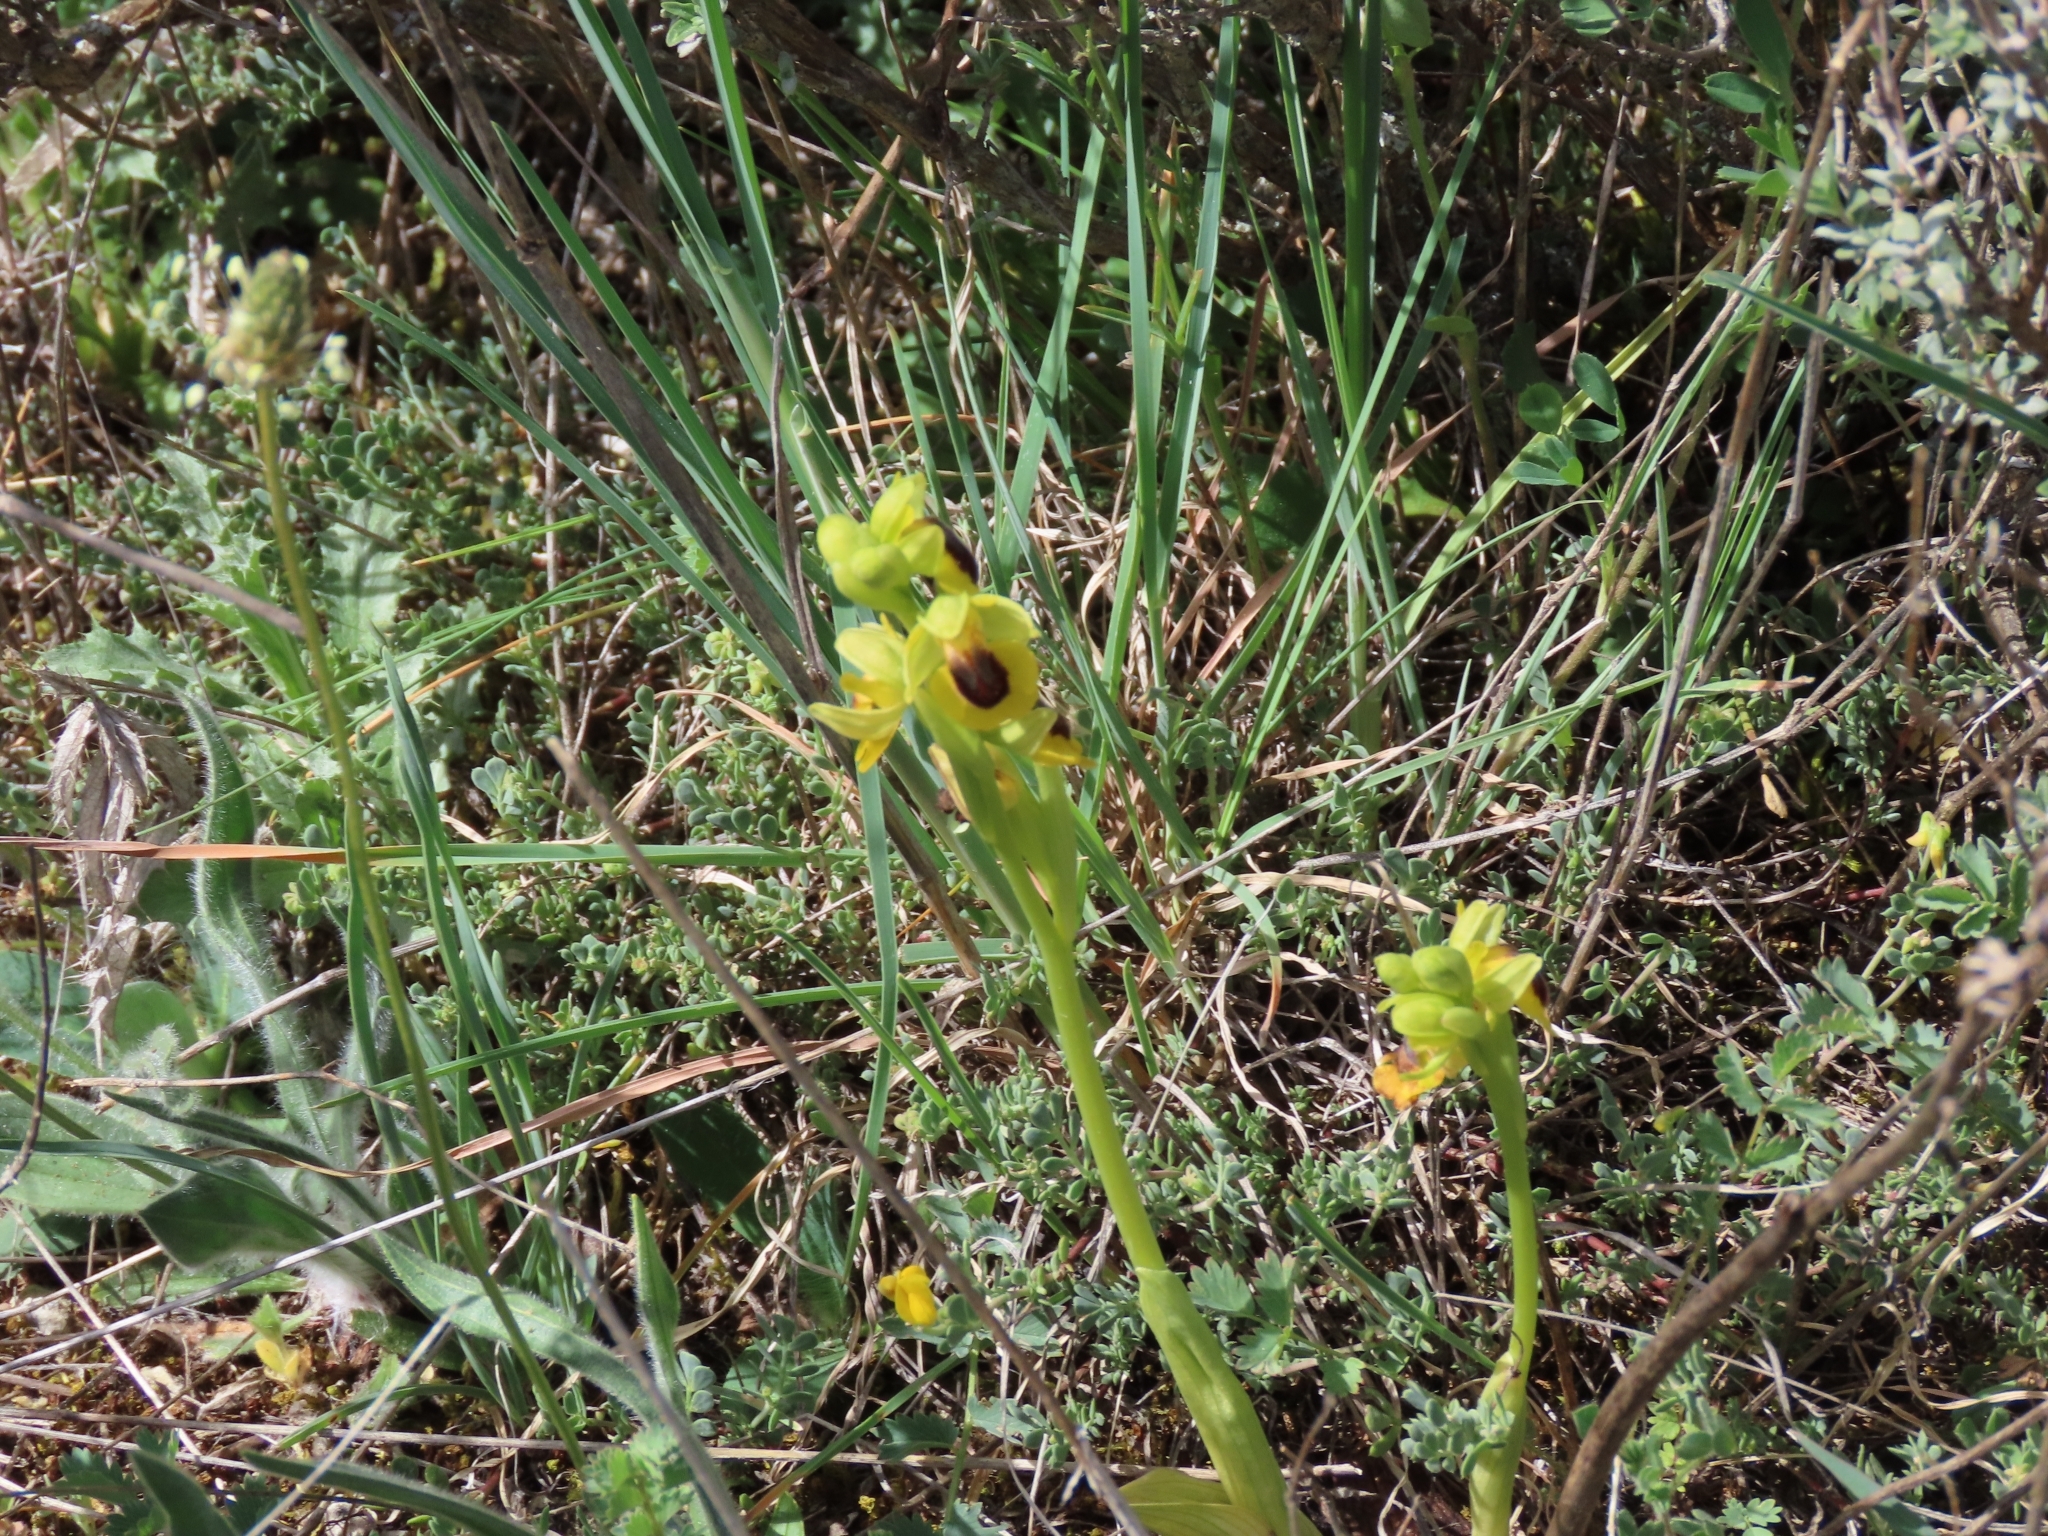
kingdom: Plantae
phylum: Tracheophyta
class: Liliopsida
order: Asparagales
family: Orchidaceae
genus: Ophrys
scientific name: Ophrys lutea
